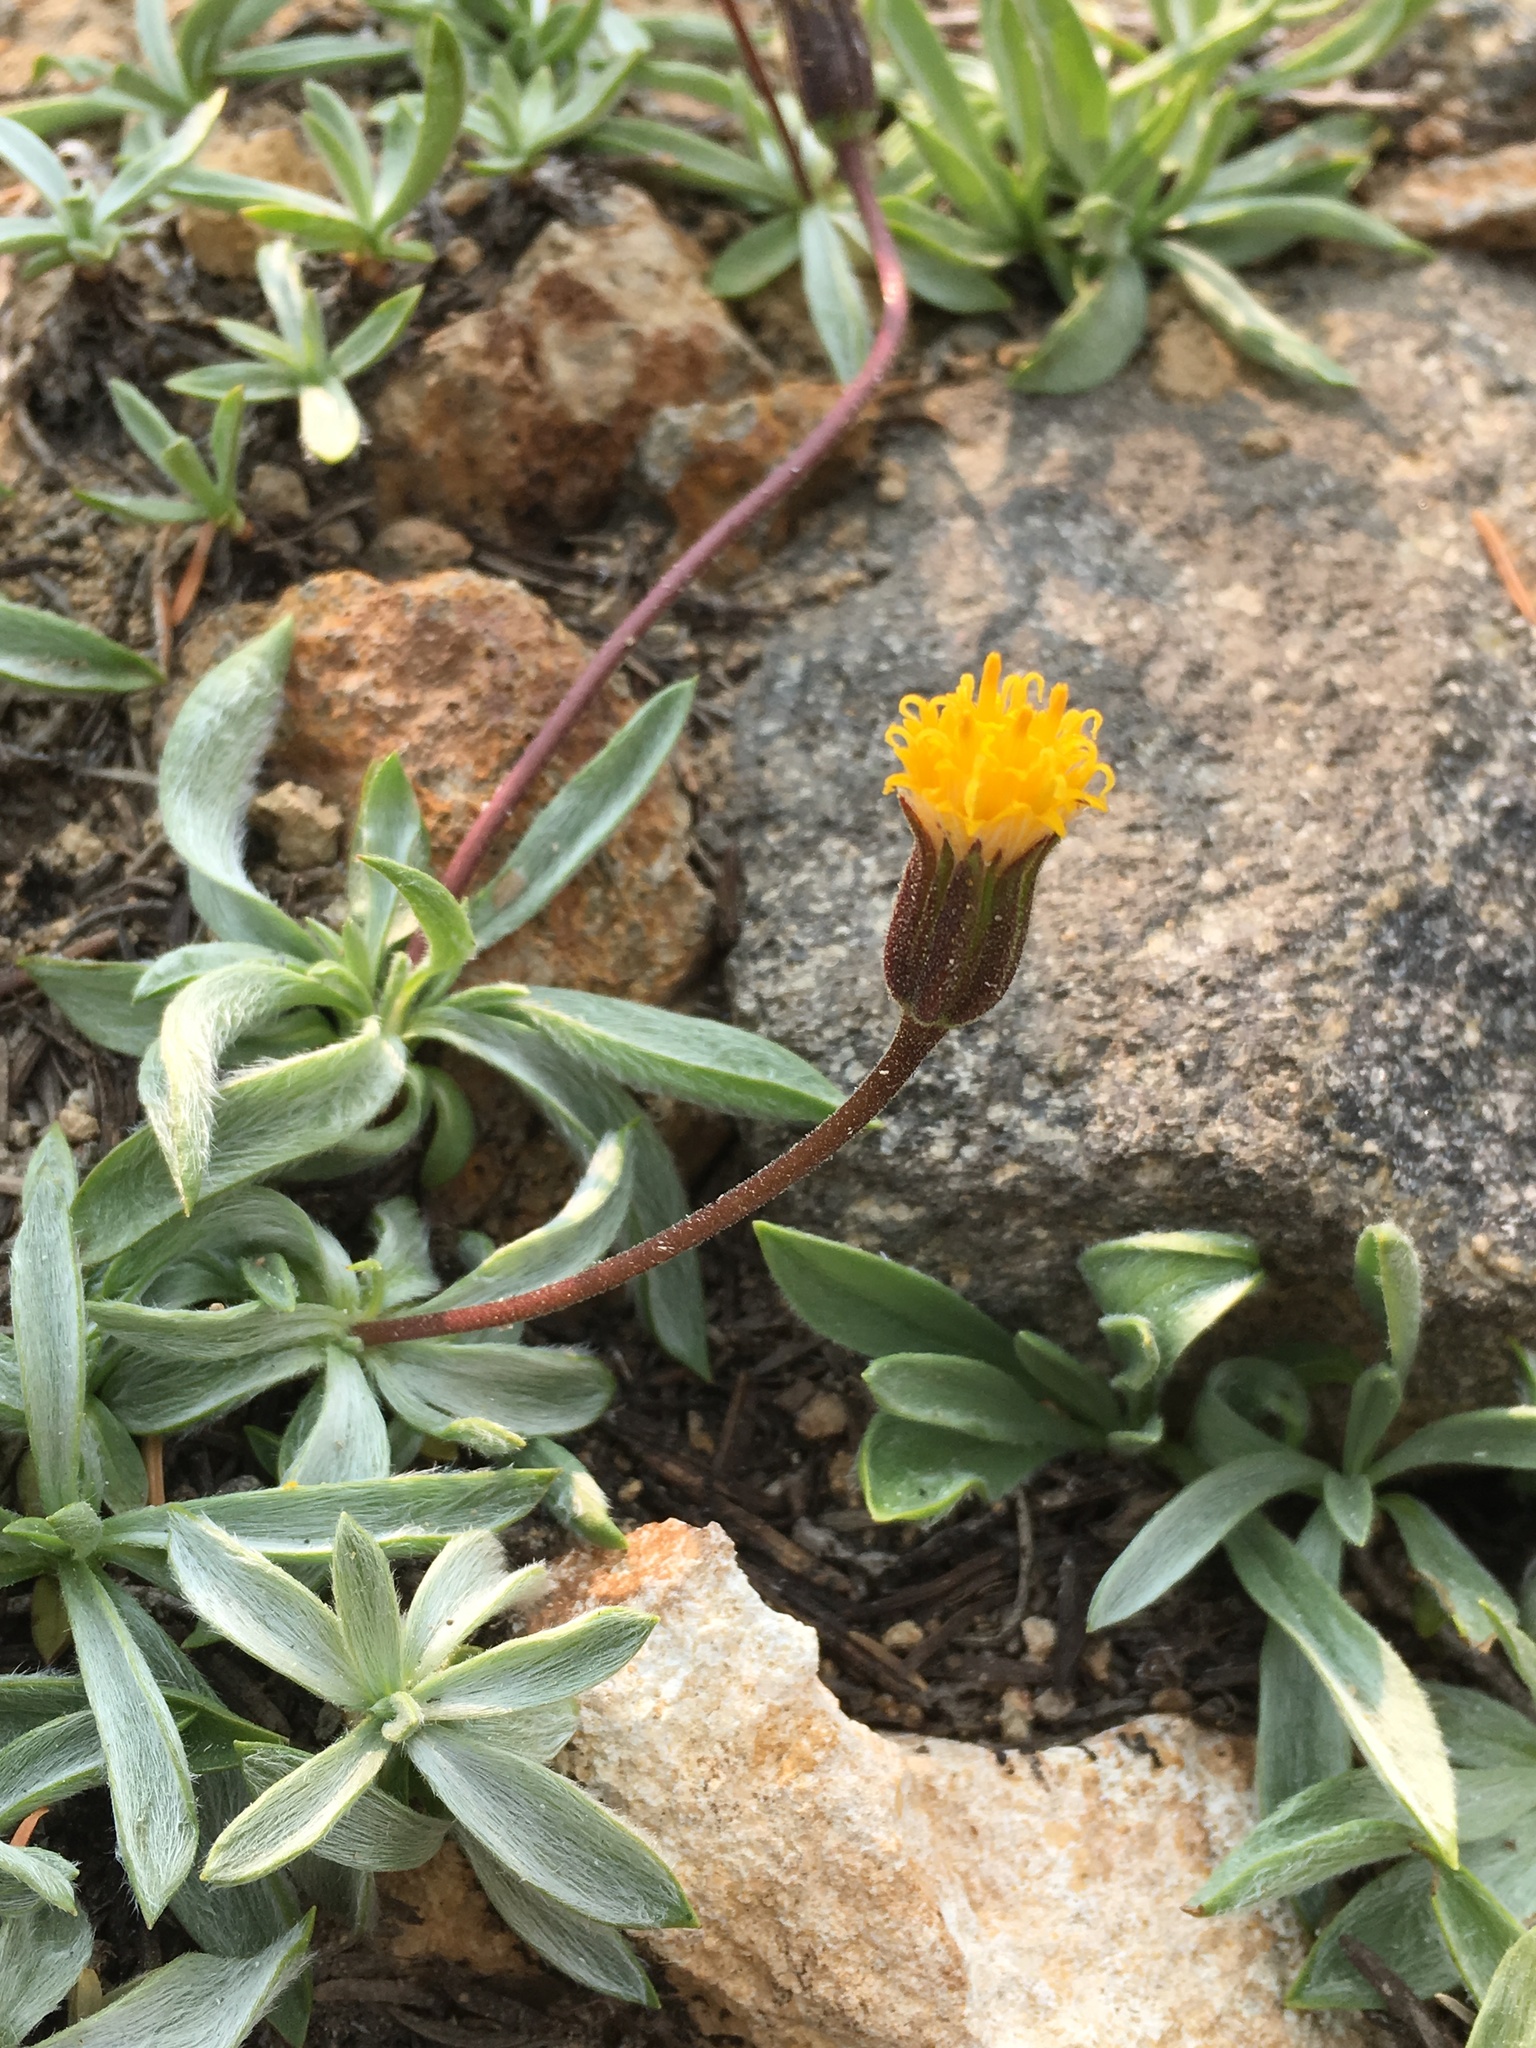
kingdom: Plantae
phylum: Tracheophyta
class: Magnoliopsida
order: Asterales
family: Asteraceae
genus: Raillardella
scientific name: Raillardella argentea
